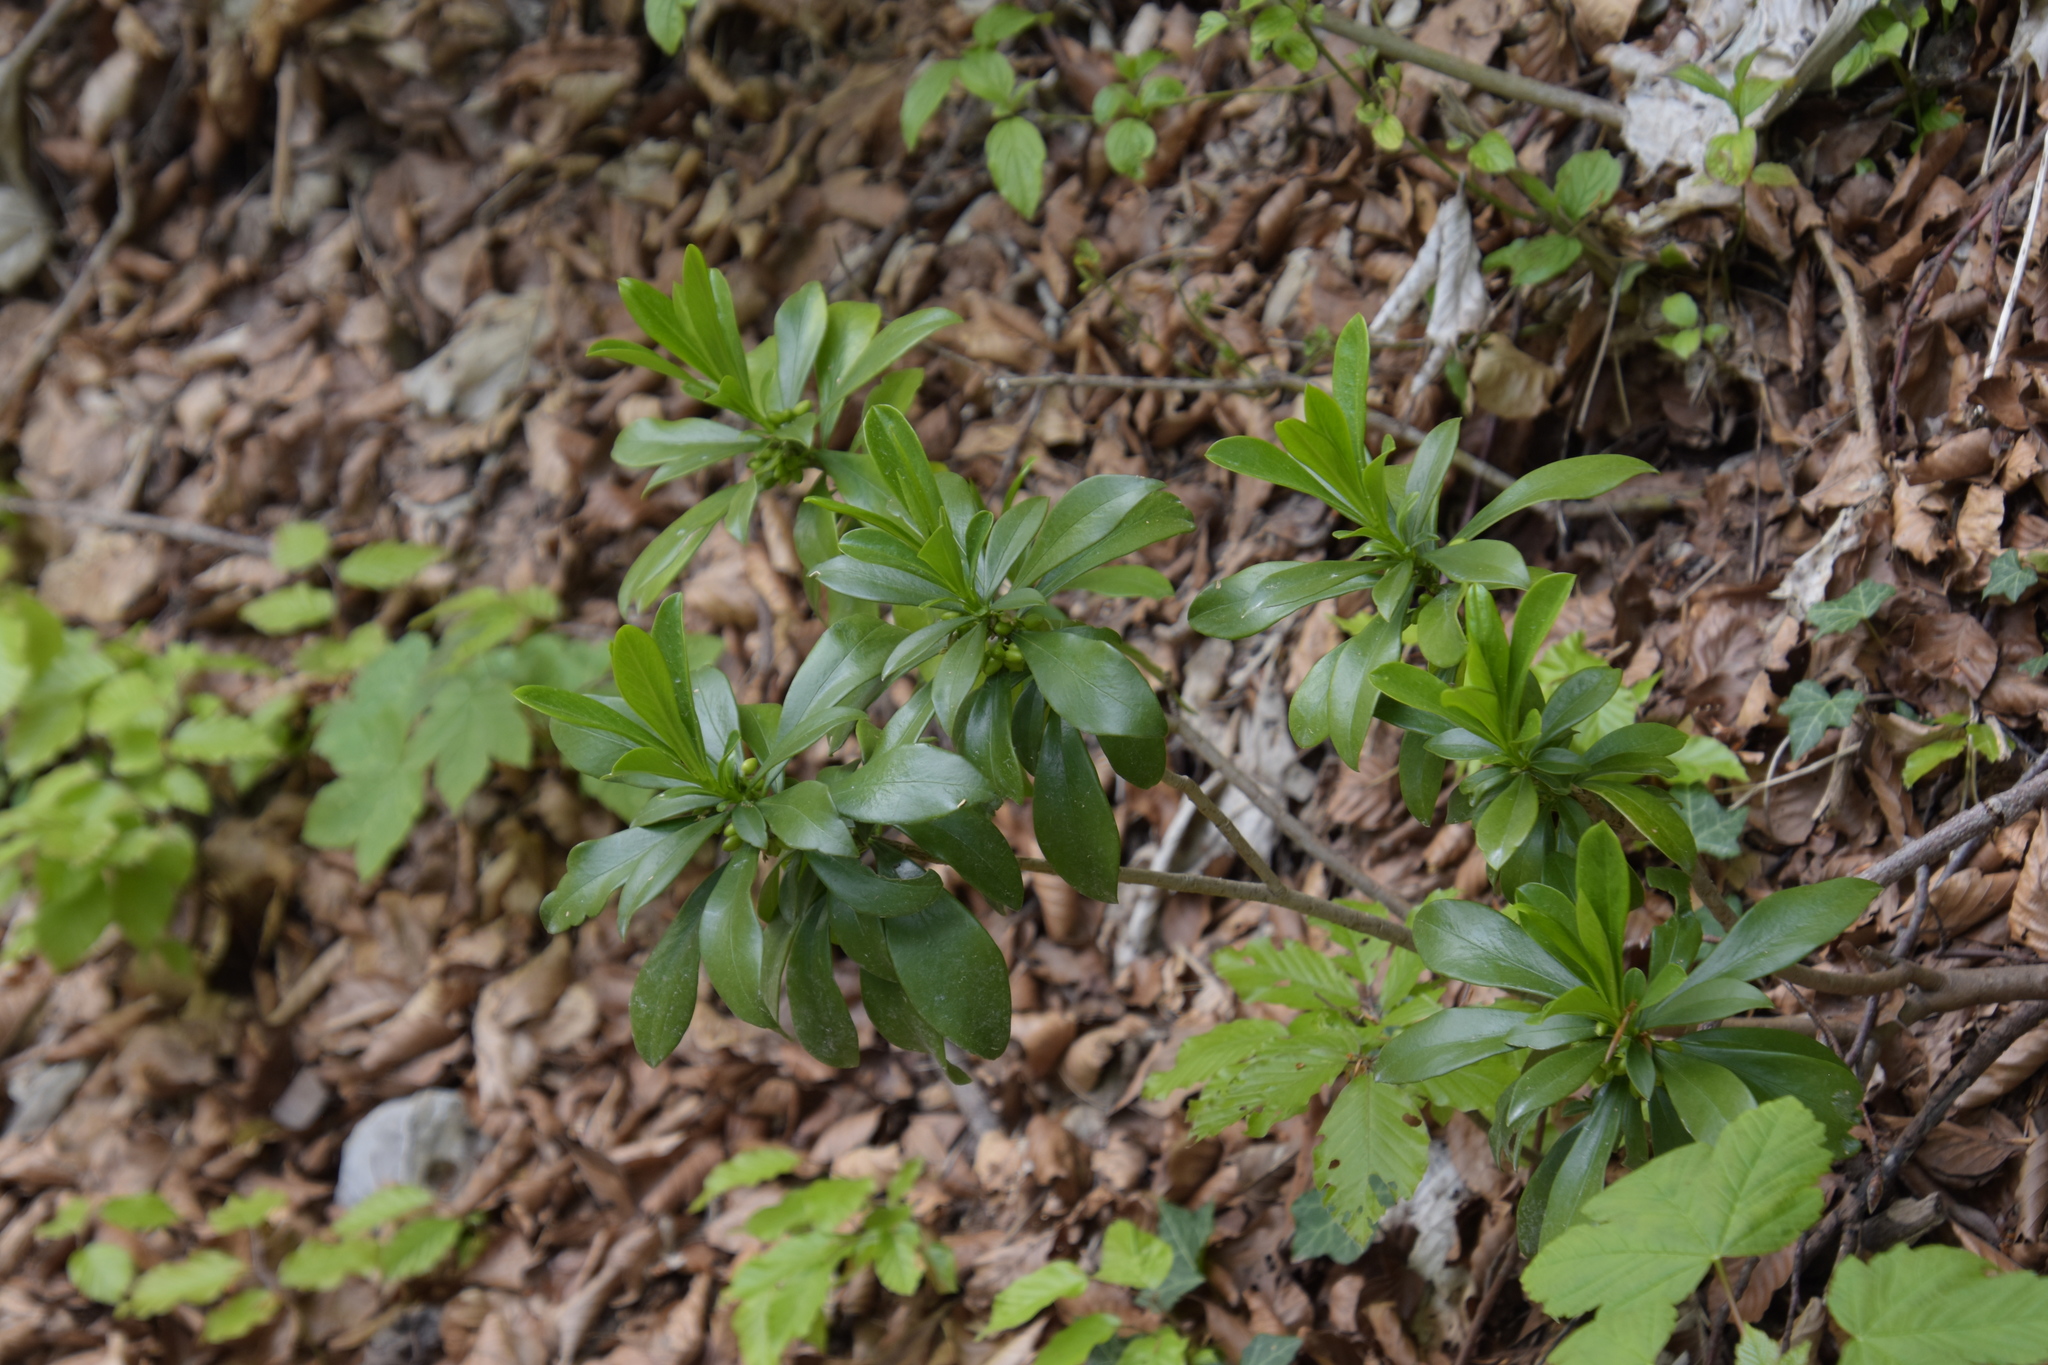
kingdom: Plantae
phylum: Tracheophyta
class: Magnoliopsida
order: Malvales
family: Thymelaeaceae
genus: Daphne
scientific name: Daphne laureola
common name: Spurge-laurel
